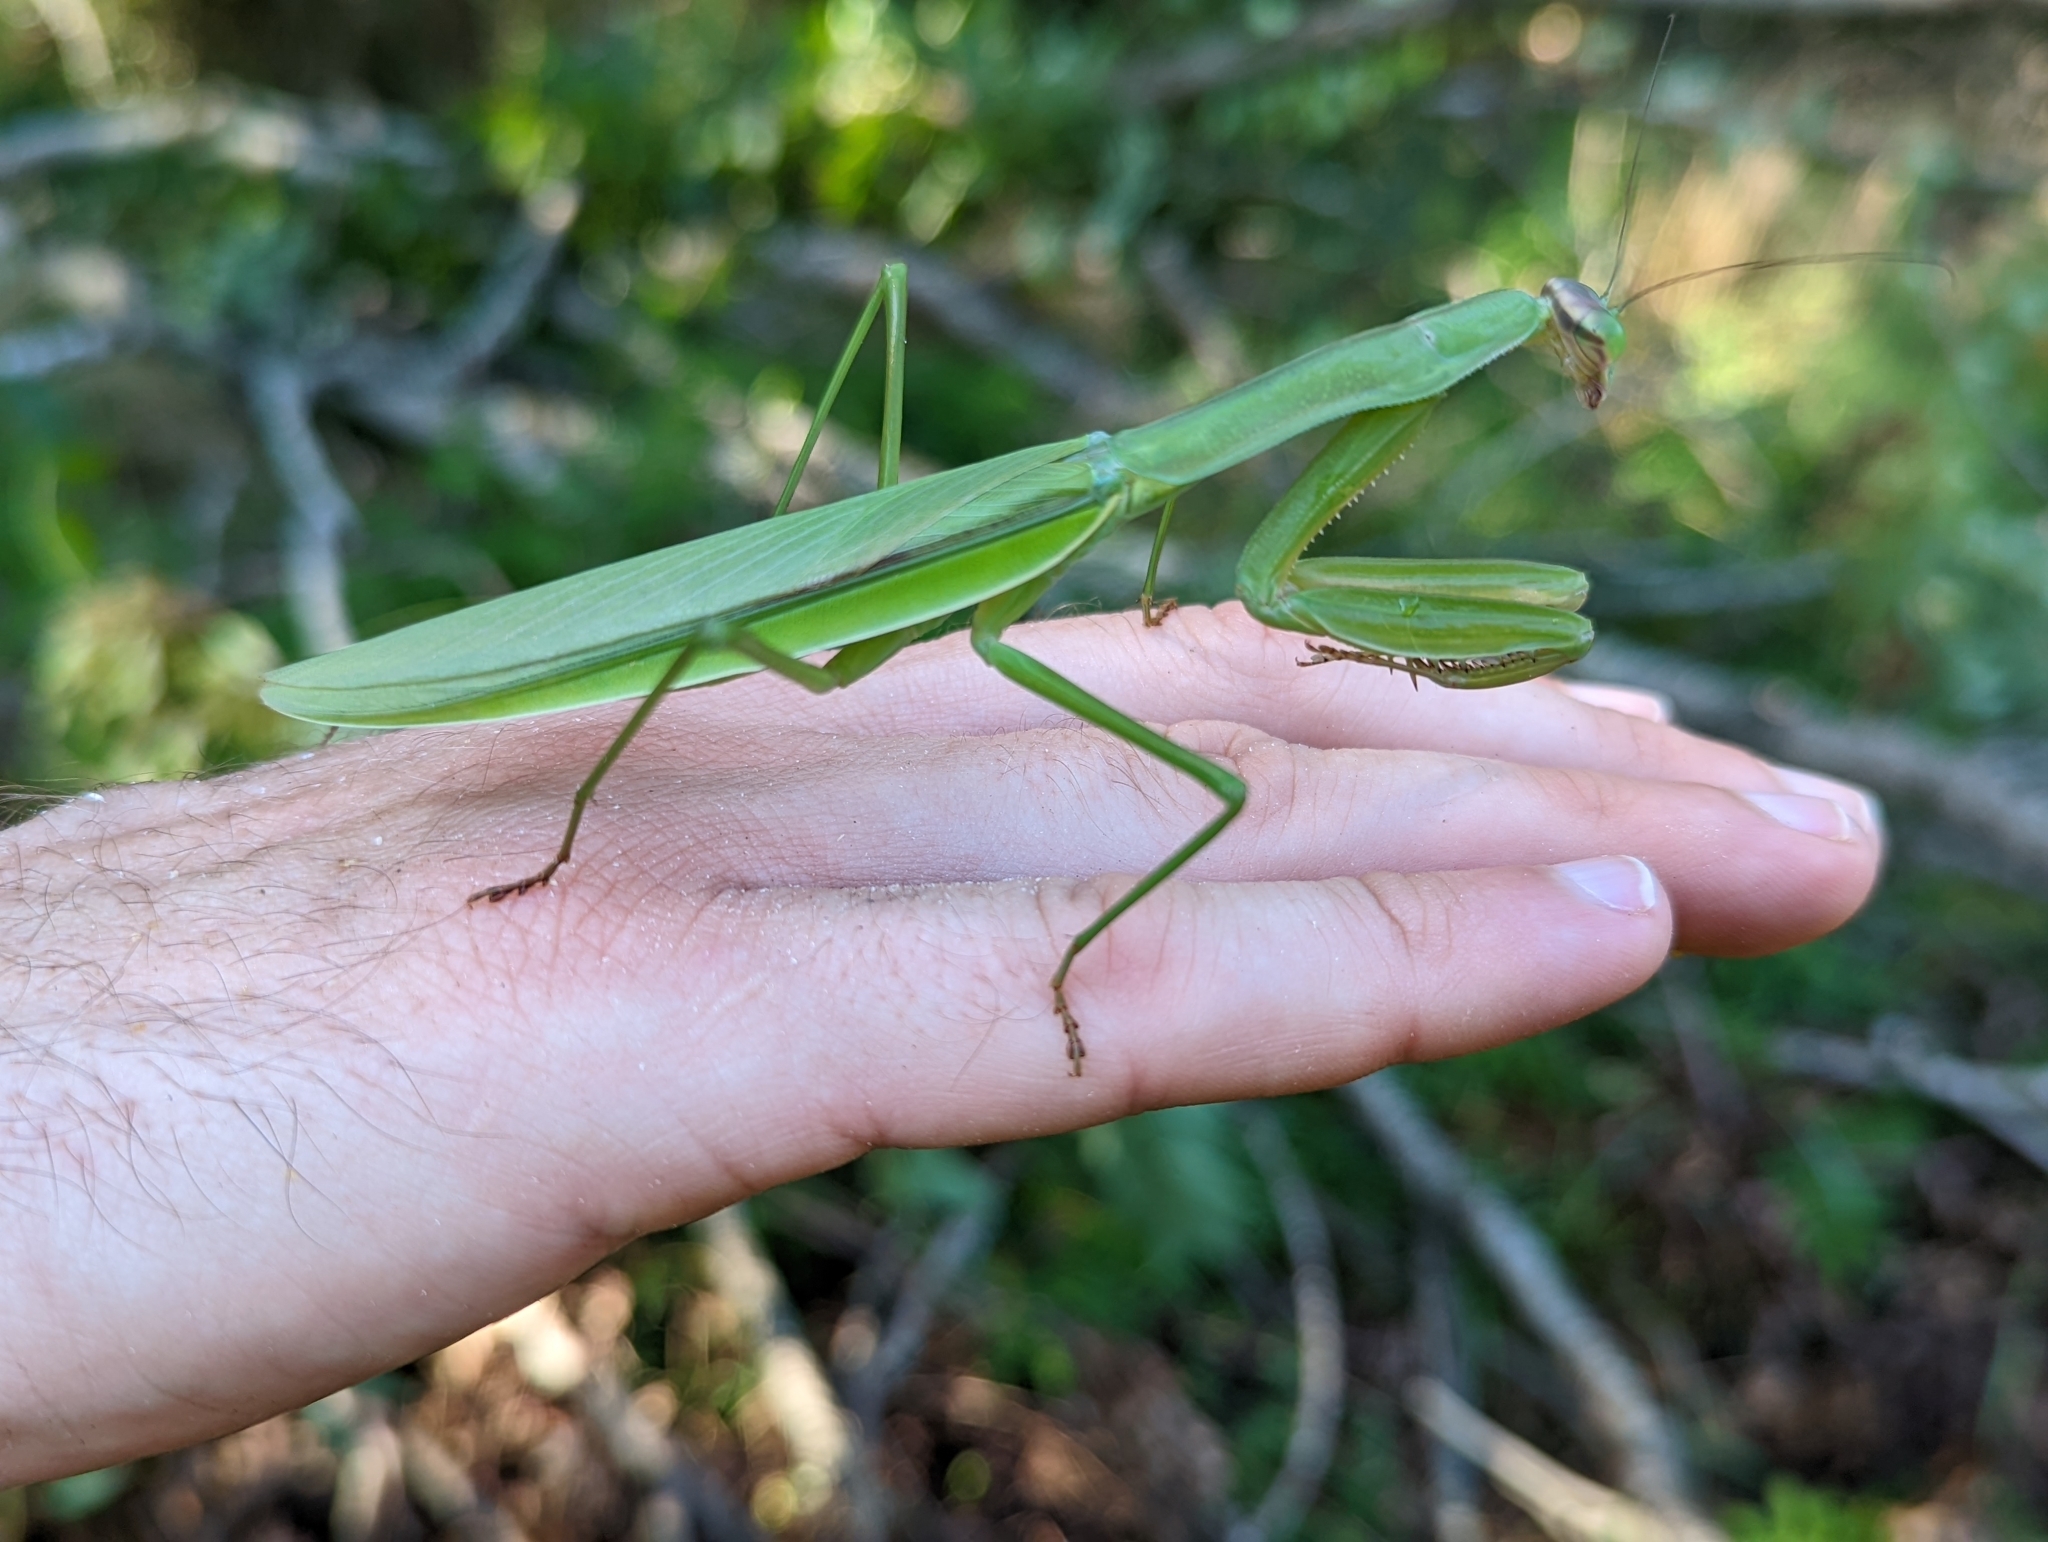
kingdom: Animalia
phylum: Arthropoda
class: Insecta
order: Mantodea
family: Mantidae
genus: Tenodera
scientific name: Tenodera sinensis
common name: Chinese mantis
